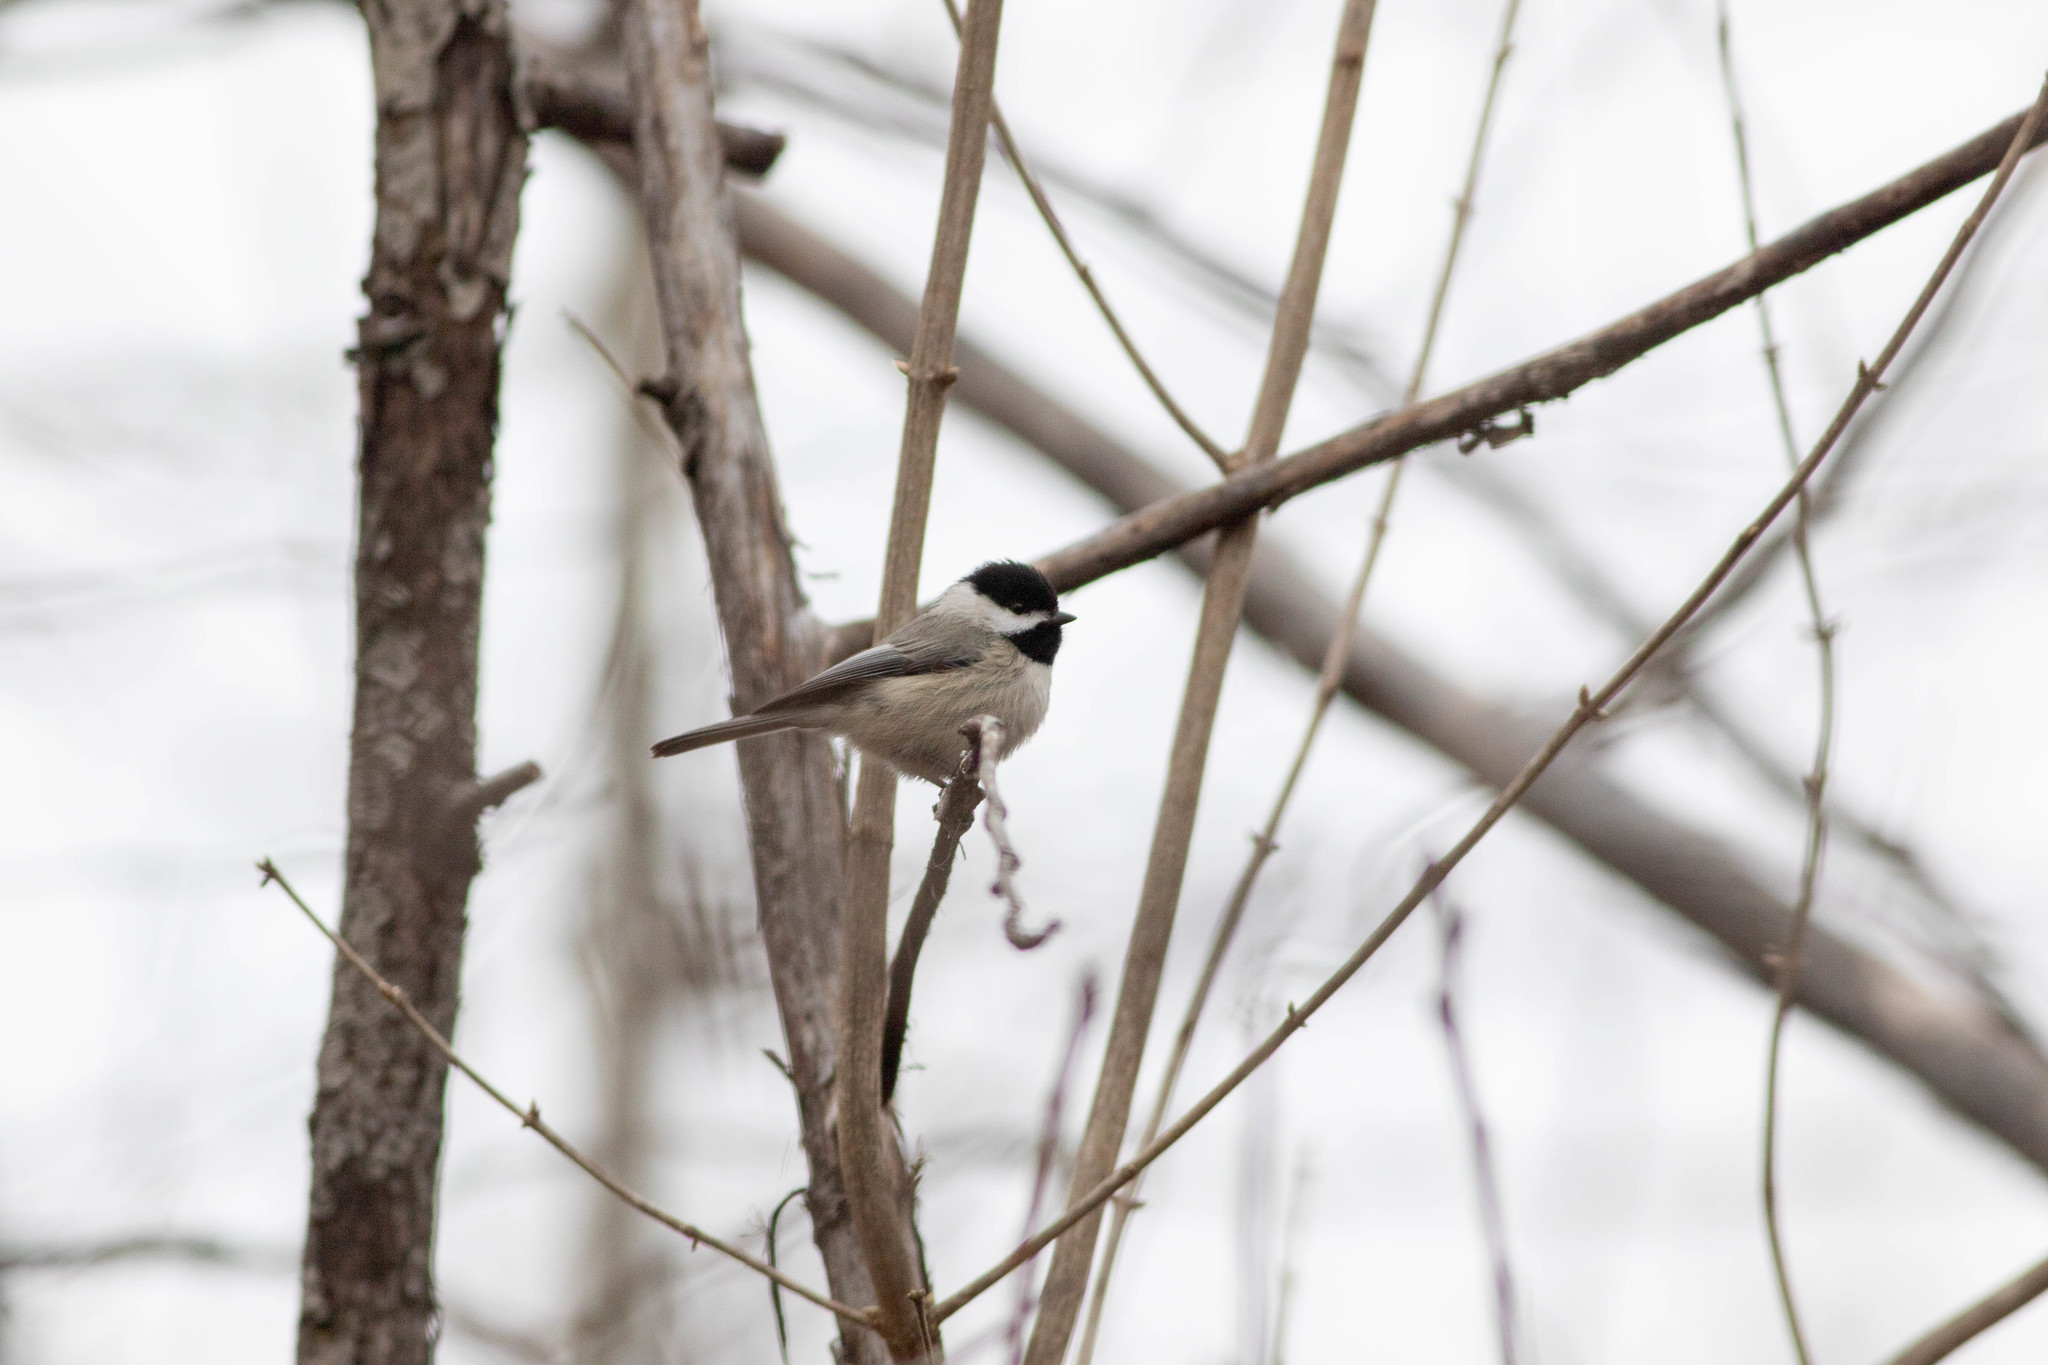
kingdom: Animalia
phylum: Chordata
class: Aves
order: Passeriformes
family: Paridae
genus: Poecile
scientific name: Poecile carolinensis
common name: Carolina chickadee
